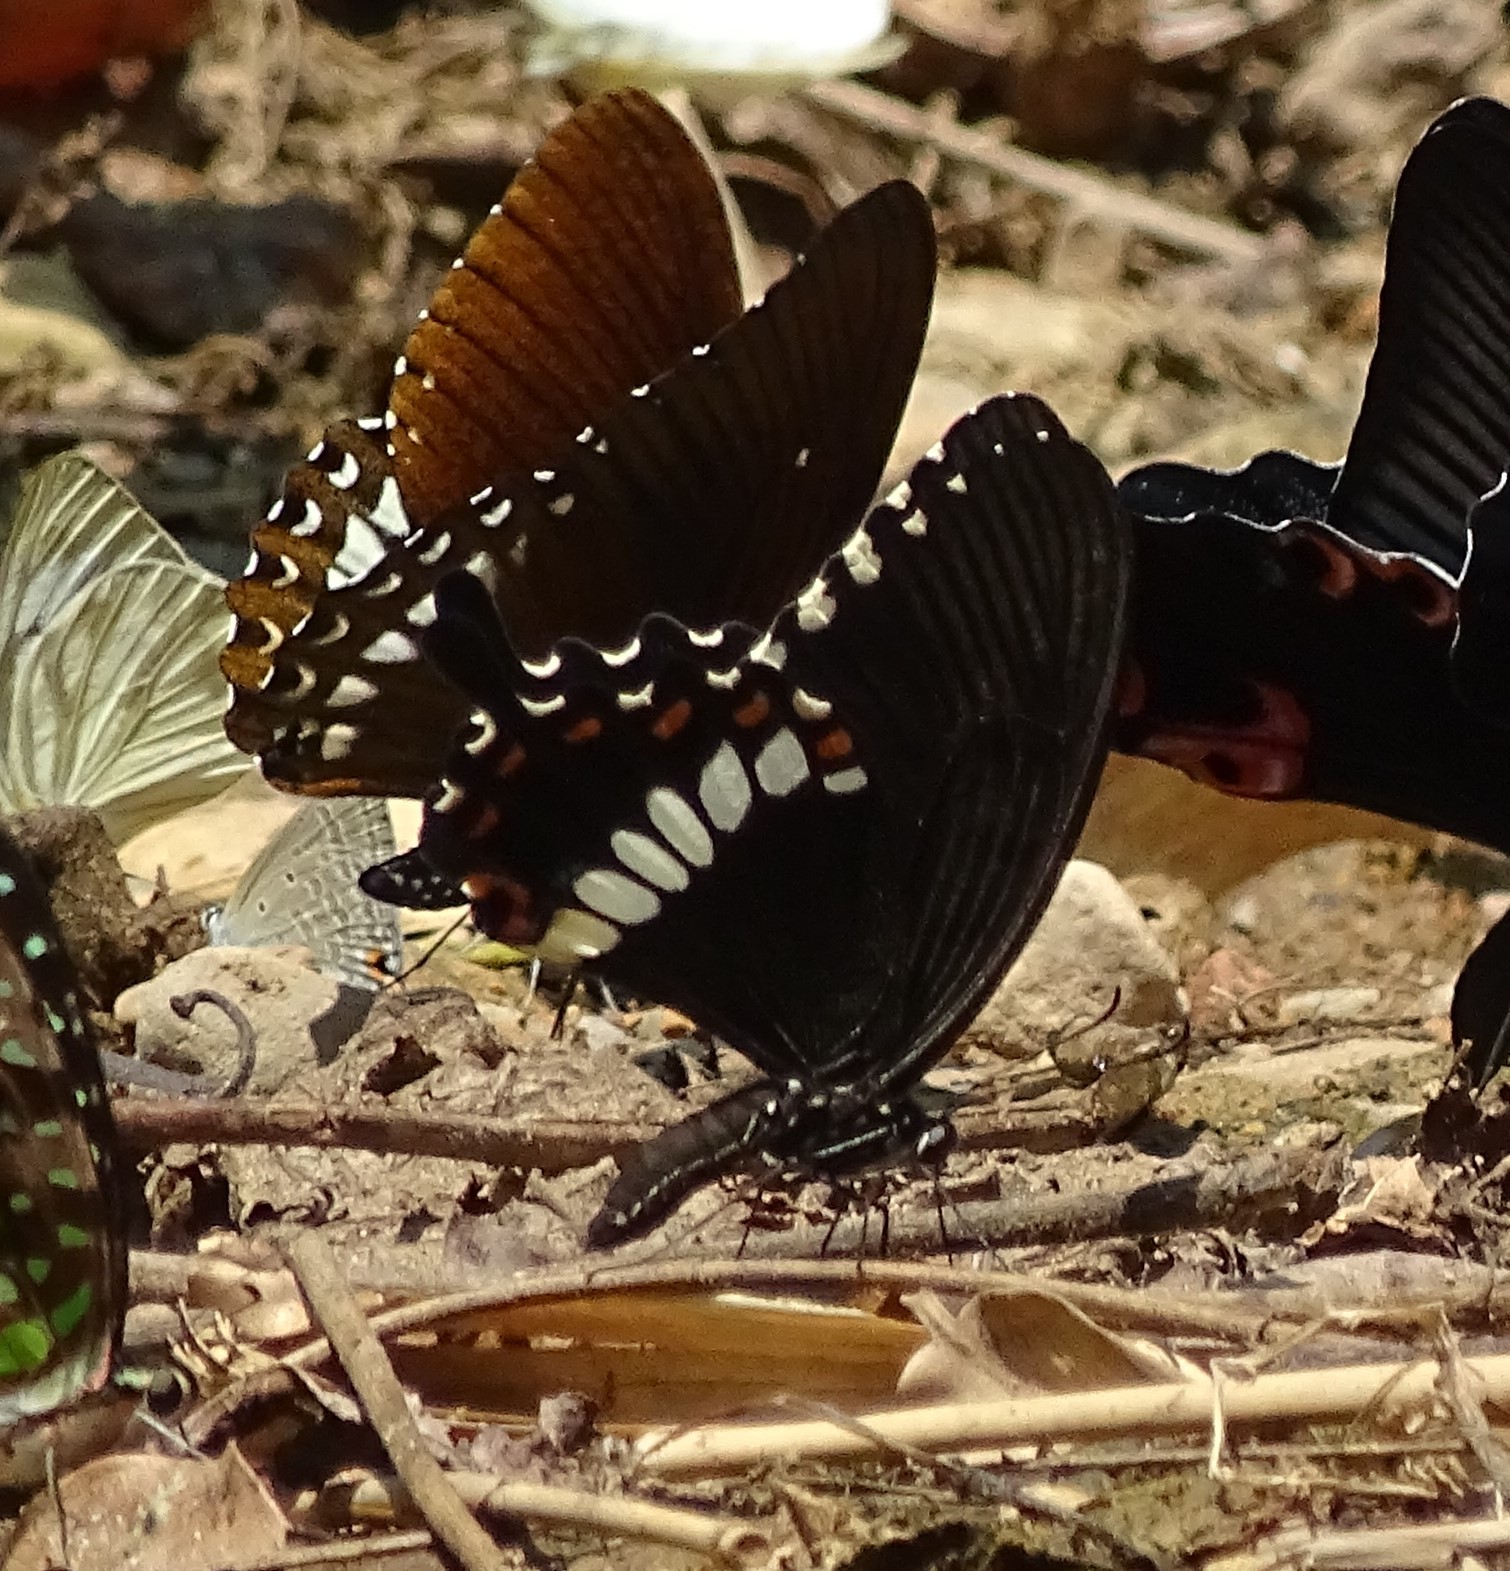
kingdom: Animalia
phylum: Arthropoda
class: Insecta
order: Lepidoptera
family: Papilionidae
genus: Papilio
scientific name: Papilio polytes
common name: Common mormon
